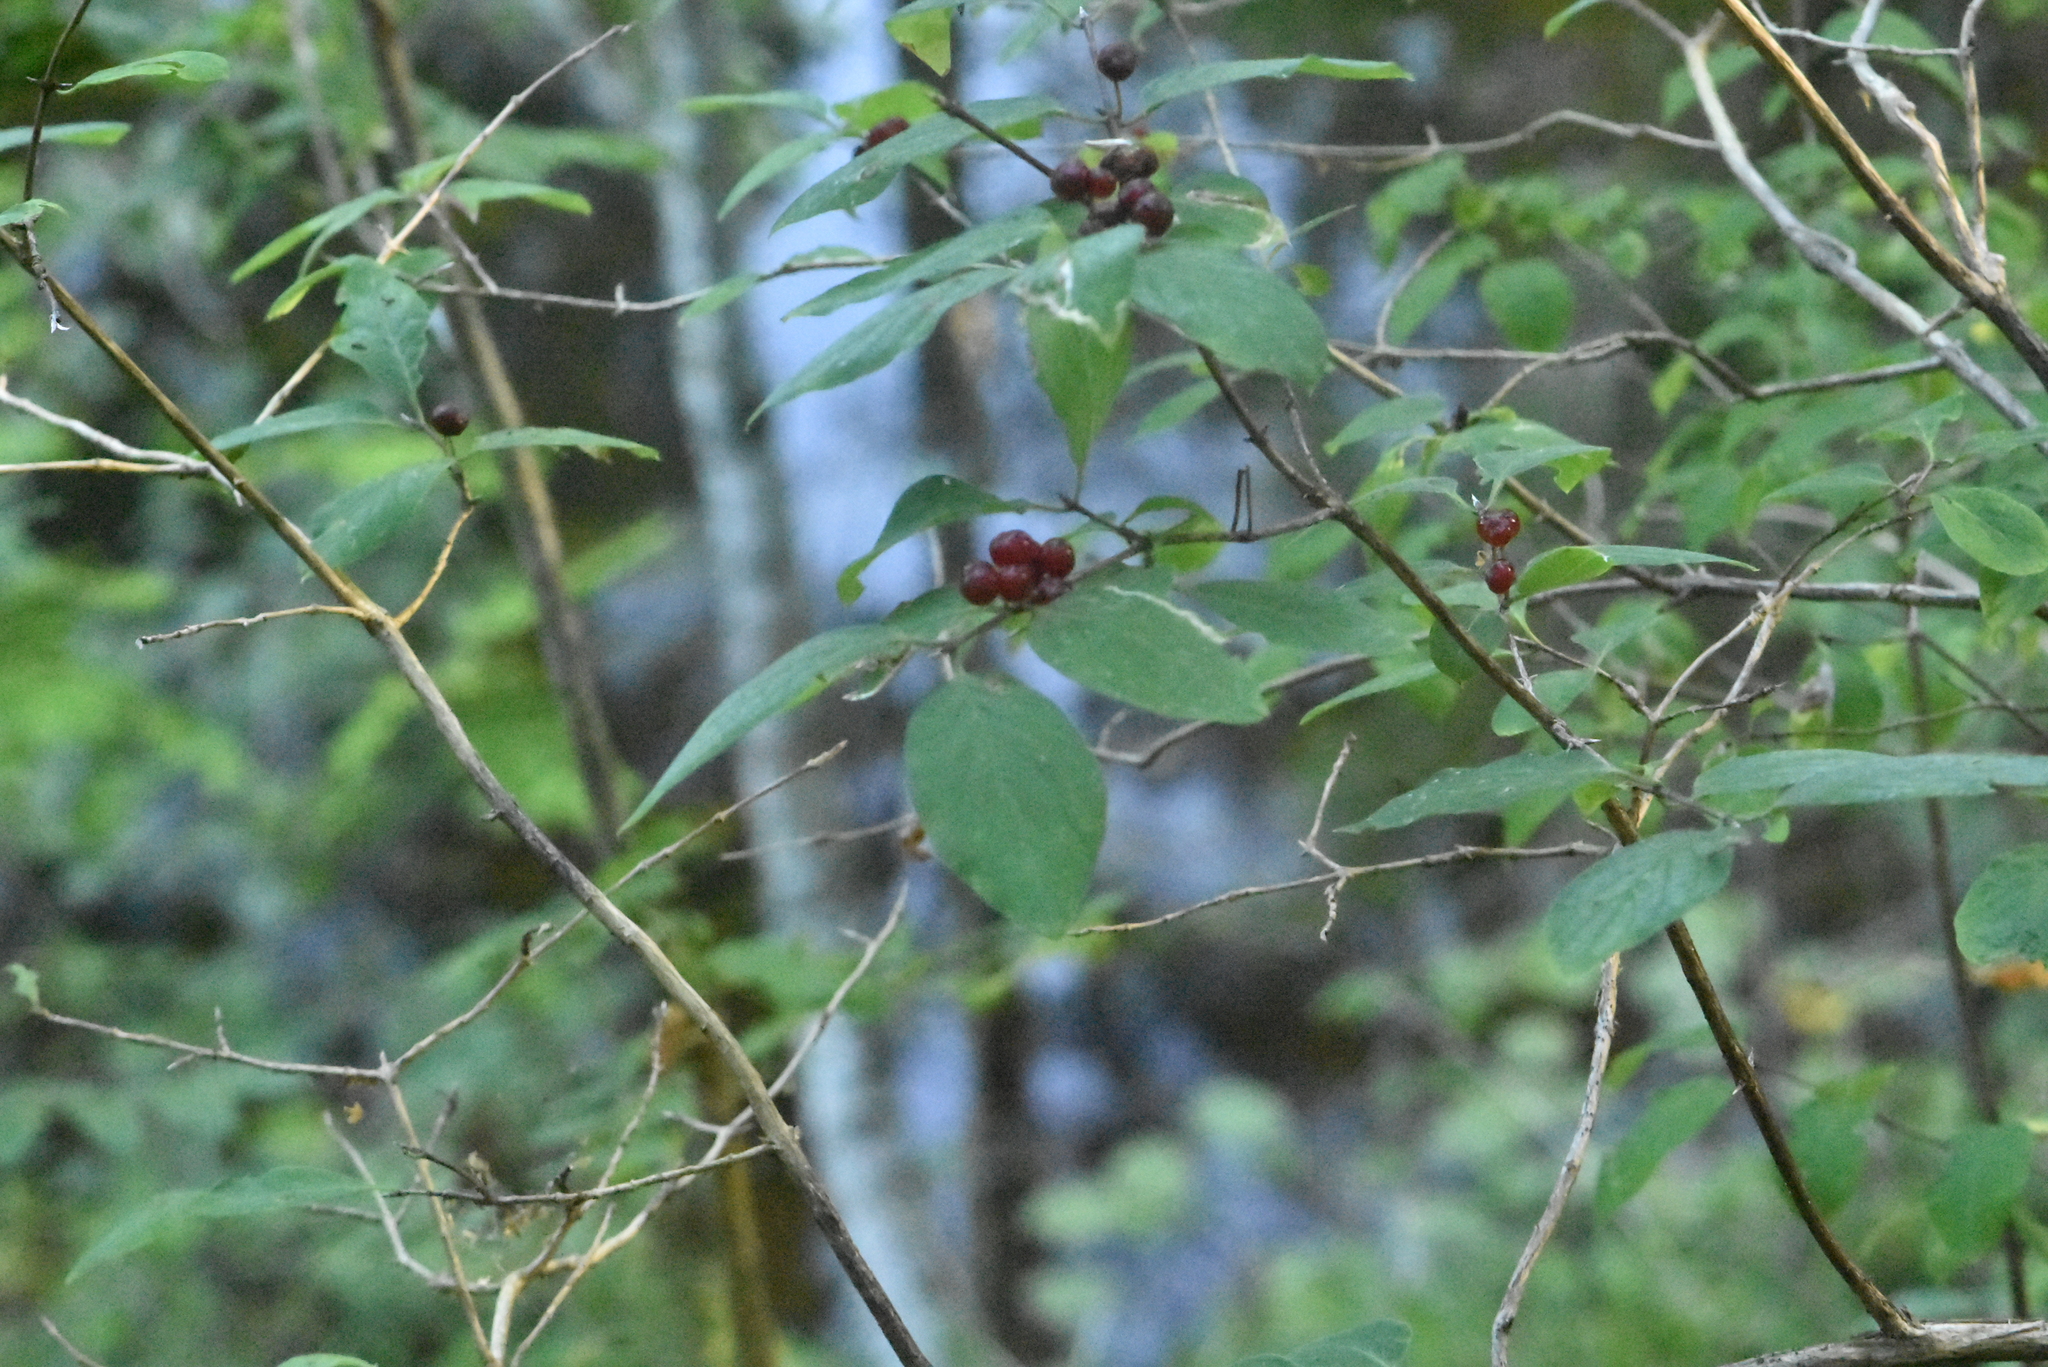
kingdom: Plantae
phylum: Tracheophyta
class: Magnoliopsida
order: Dipsacales
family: Caprifoliaceae
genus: Lonicera
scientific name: Lonicera xylosteum
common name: Fly honeysuckle
